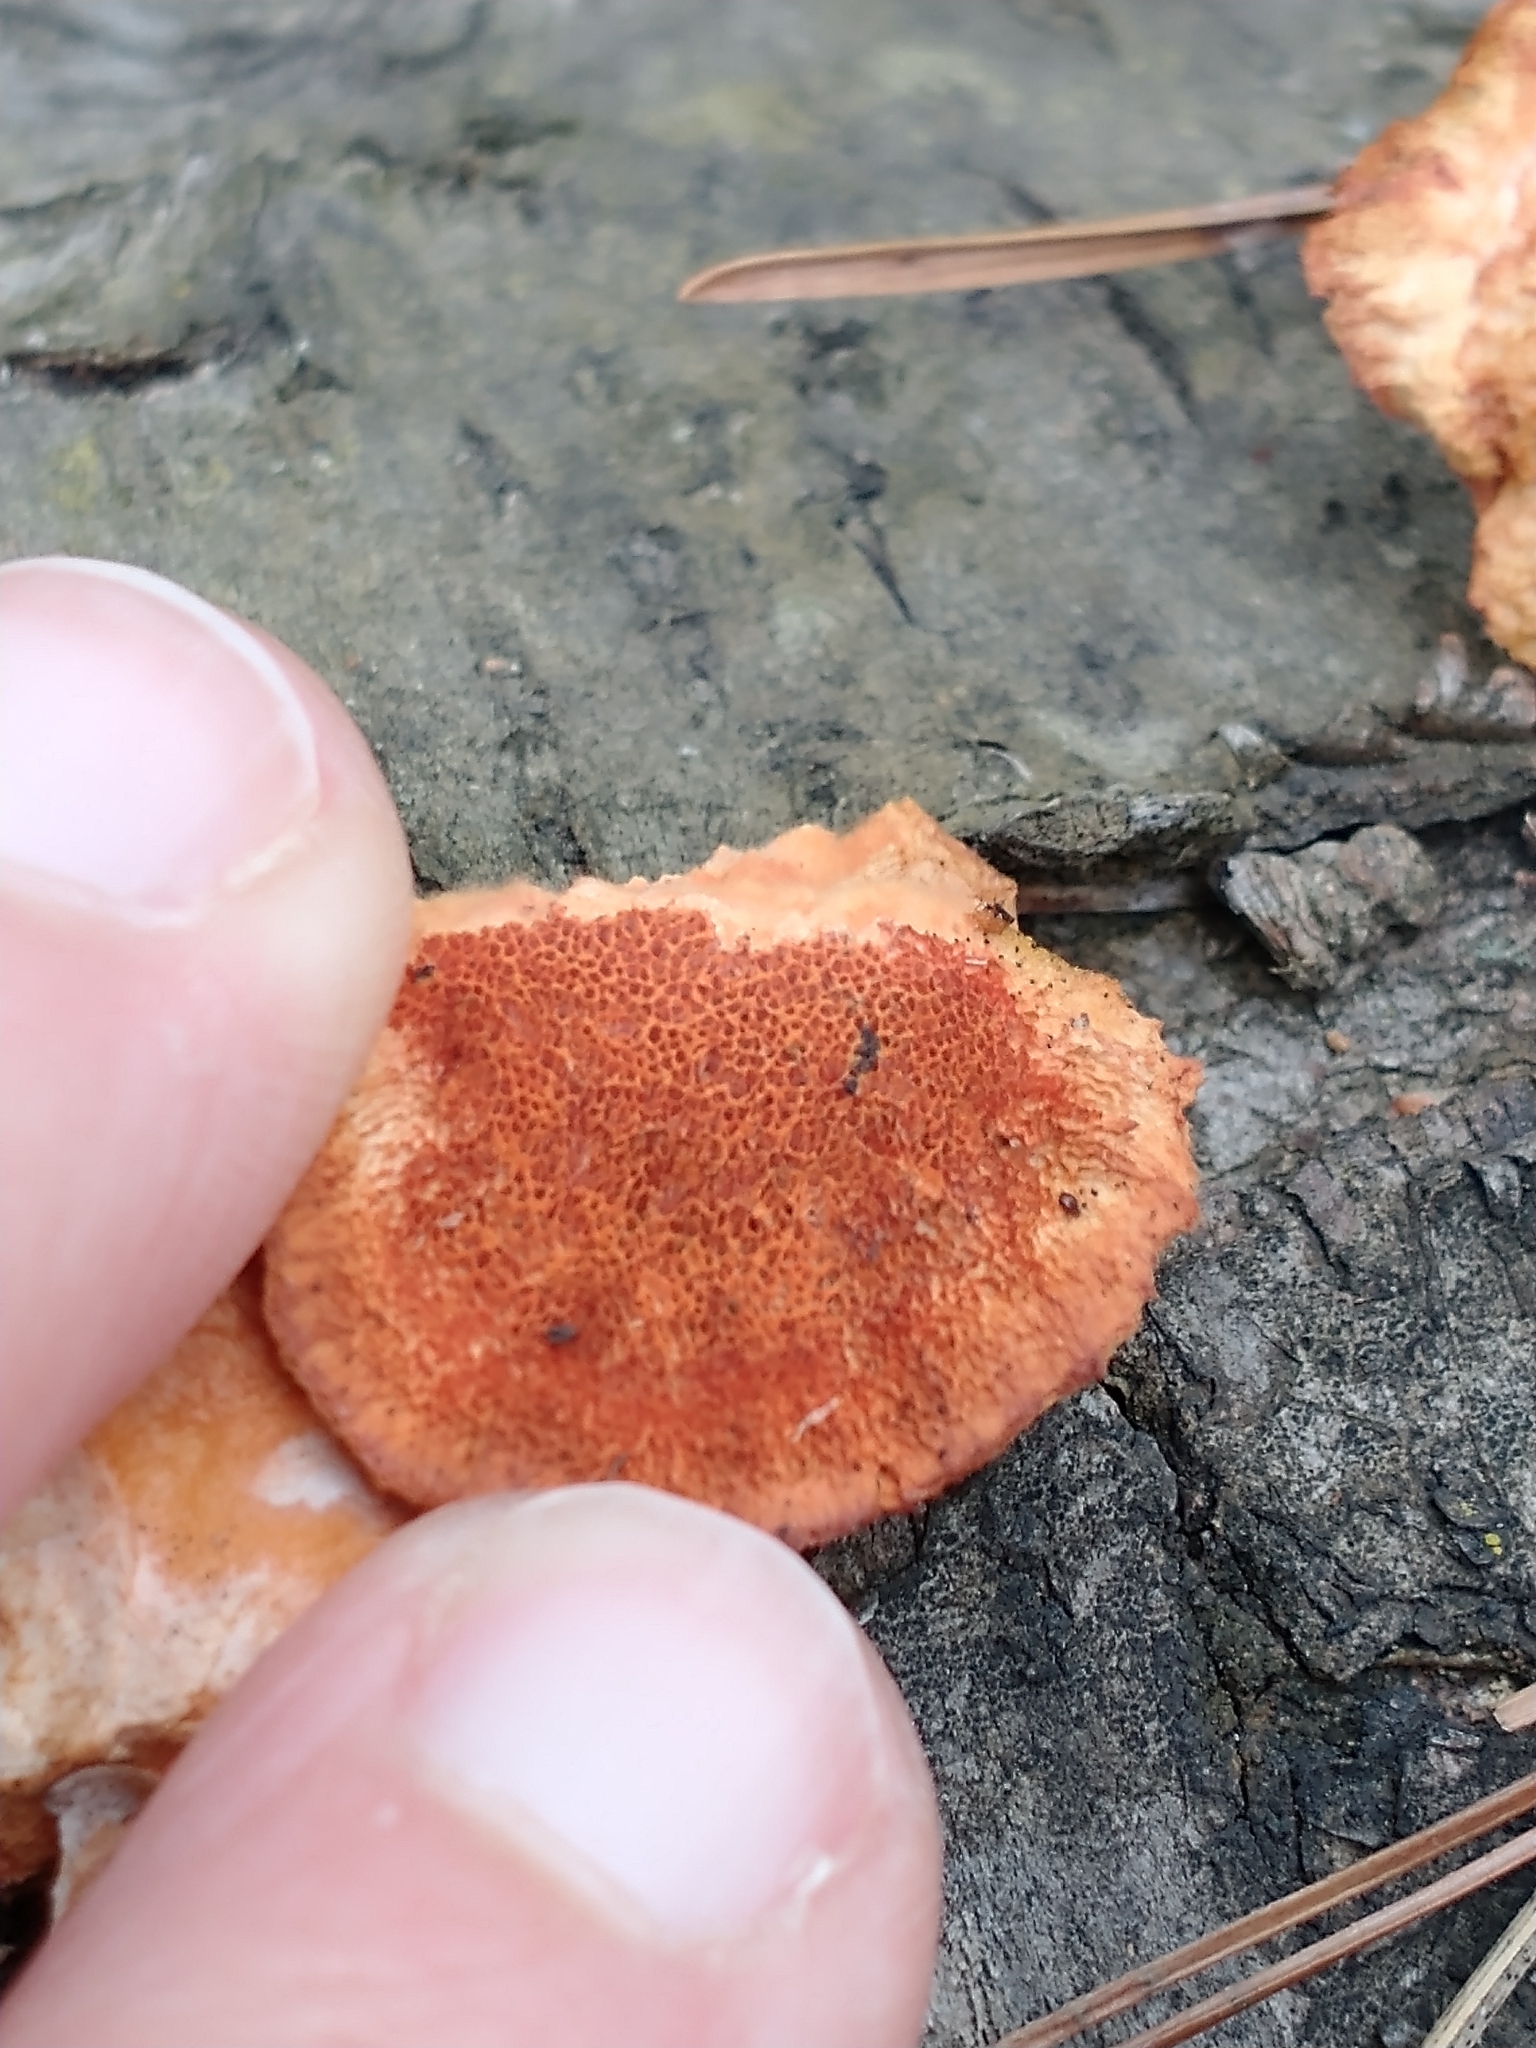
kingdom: Fungi
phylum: Basidiomycota
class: Agaricomycetes
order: Polyporales
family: Polyporaceae
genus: Trametes
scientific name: Trametes cinnabarina
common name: Northern cinnabar polypore
